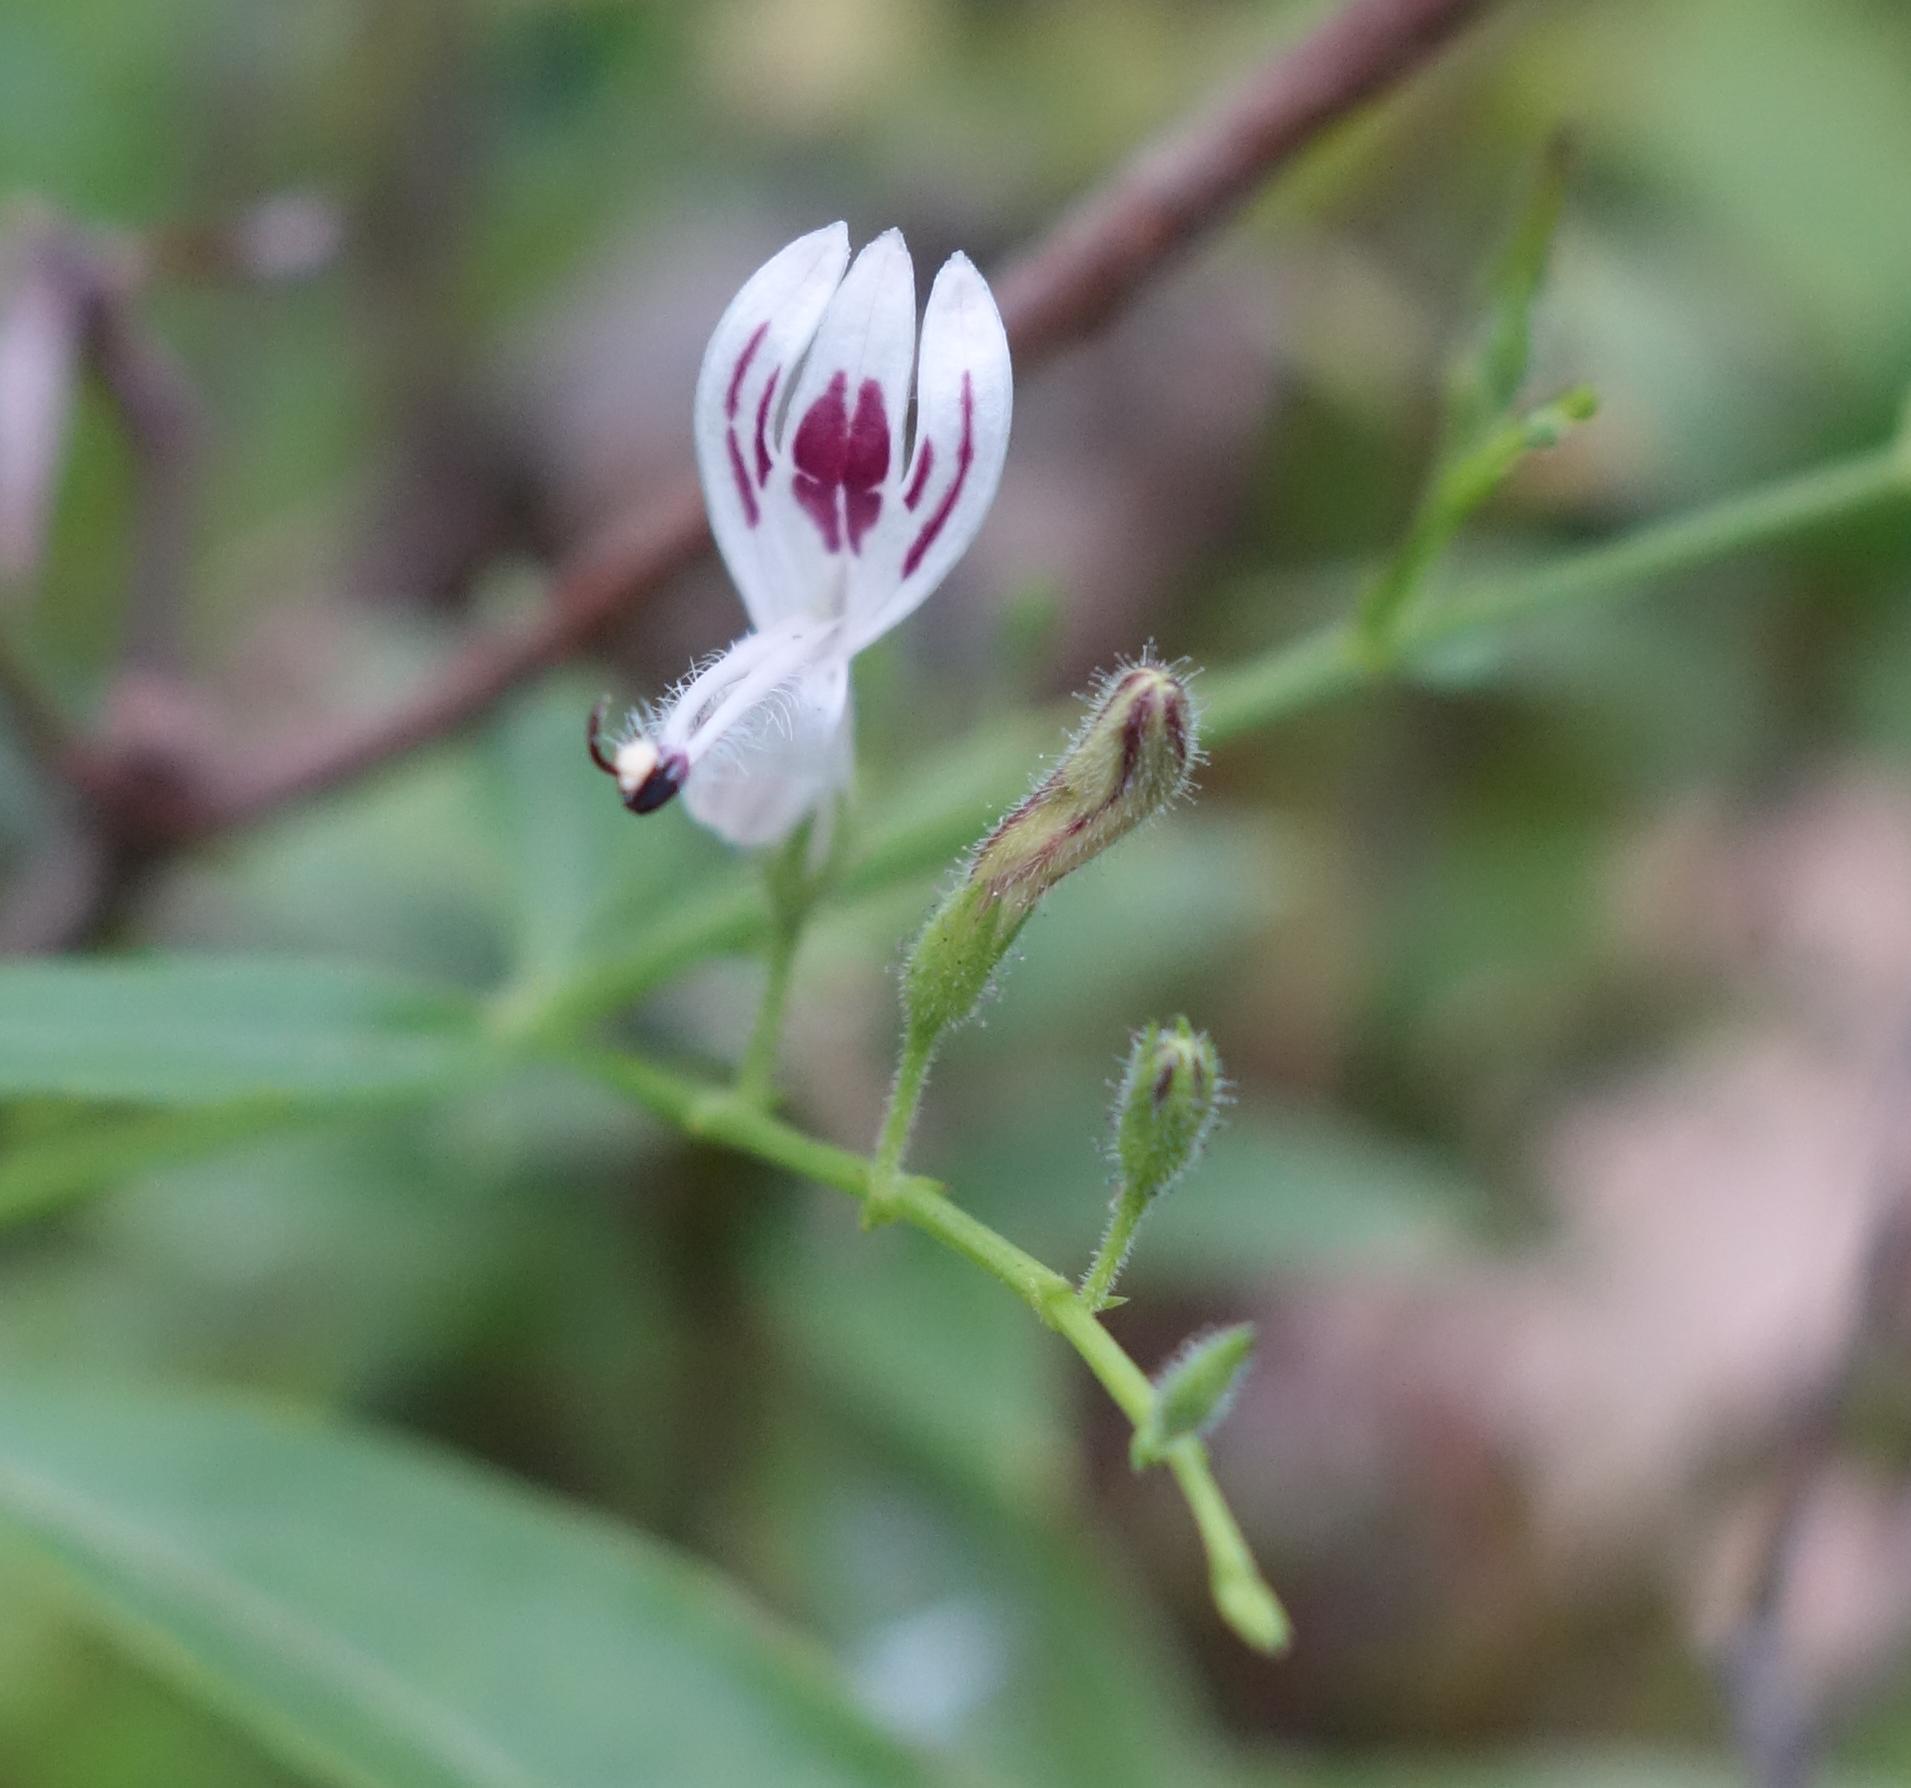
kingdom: Plantae
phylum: Tracheophyta
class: Magnoliopsida
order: Lamiales
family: Acanthaceae
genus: Andrographis
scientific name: Andrographis paniculata
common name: Green chireta
